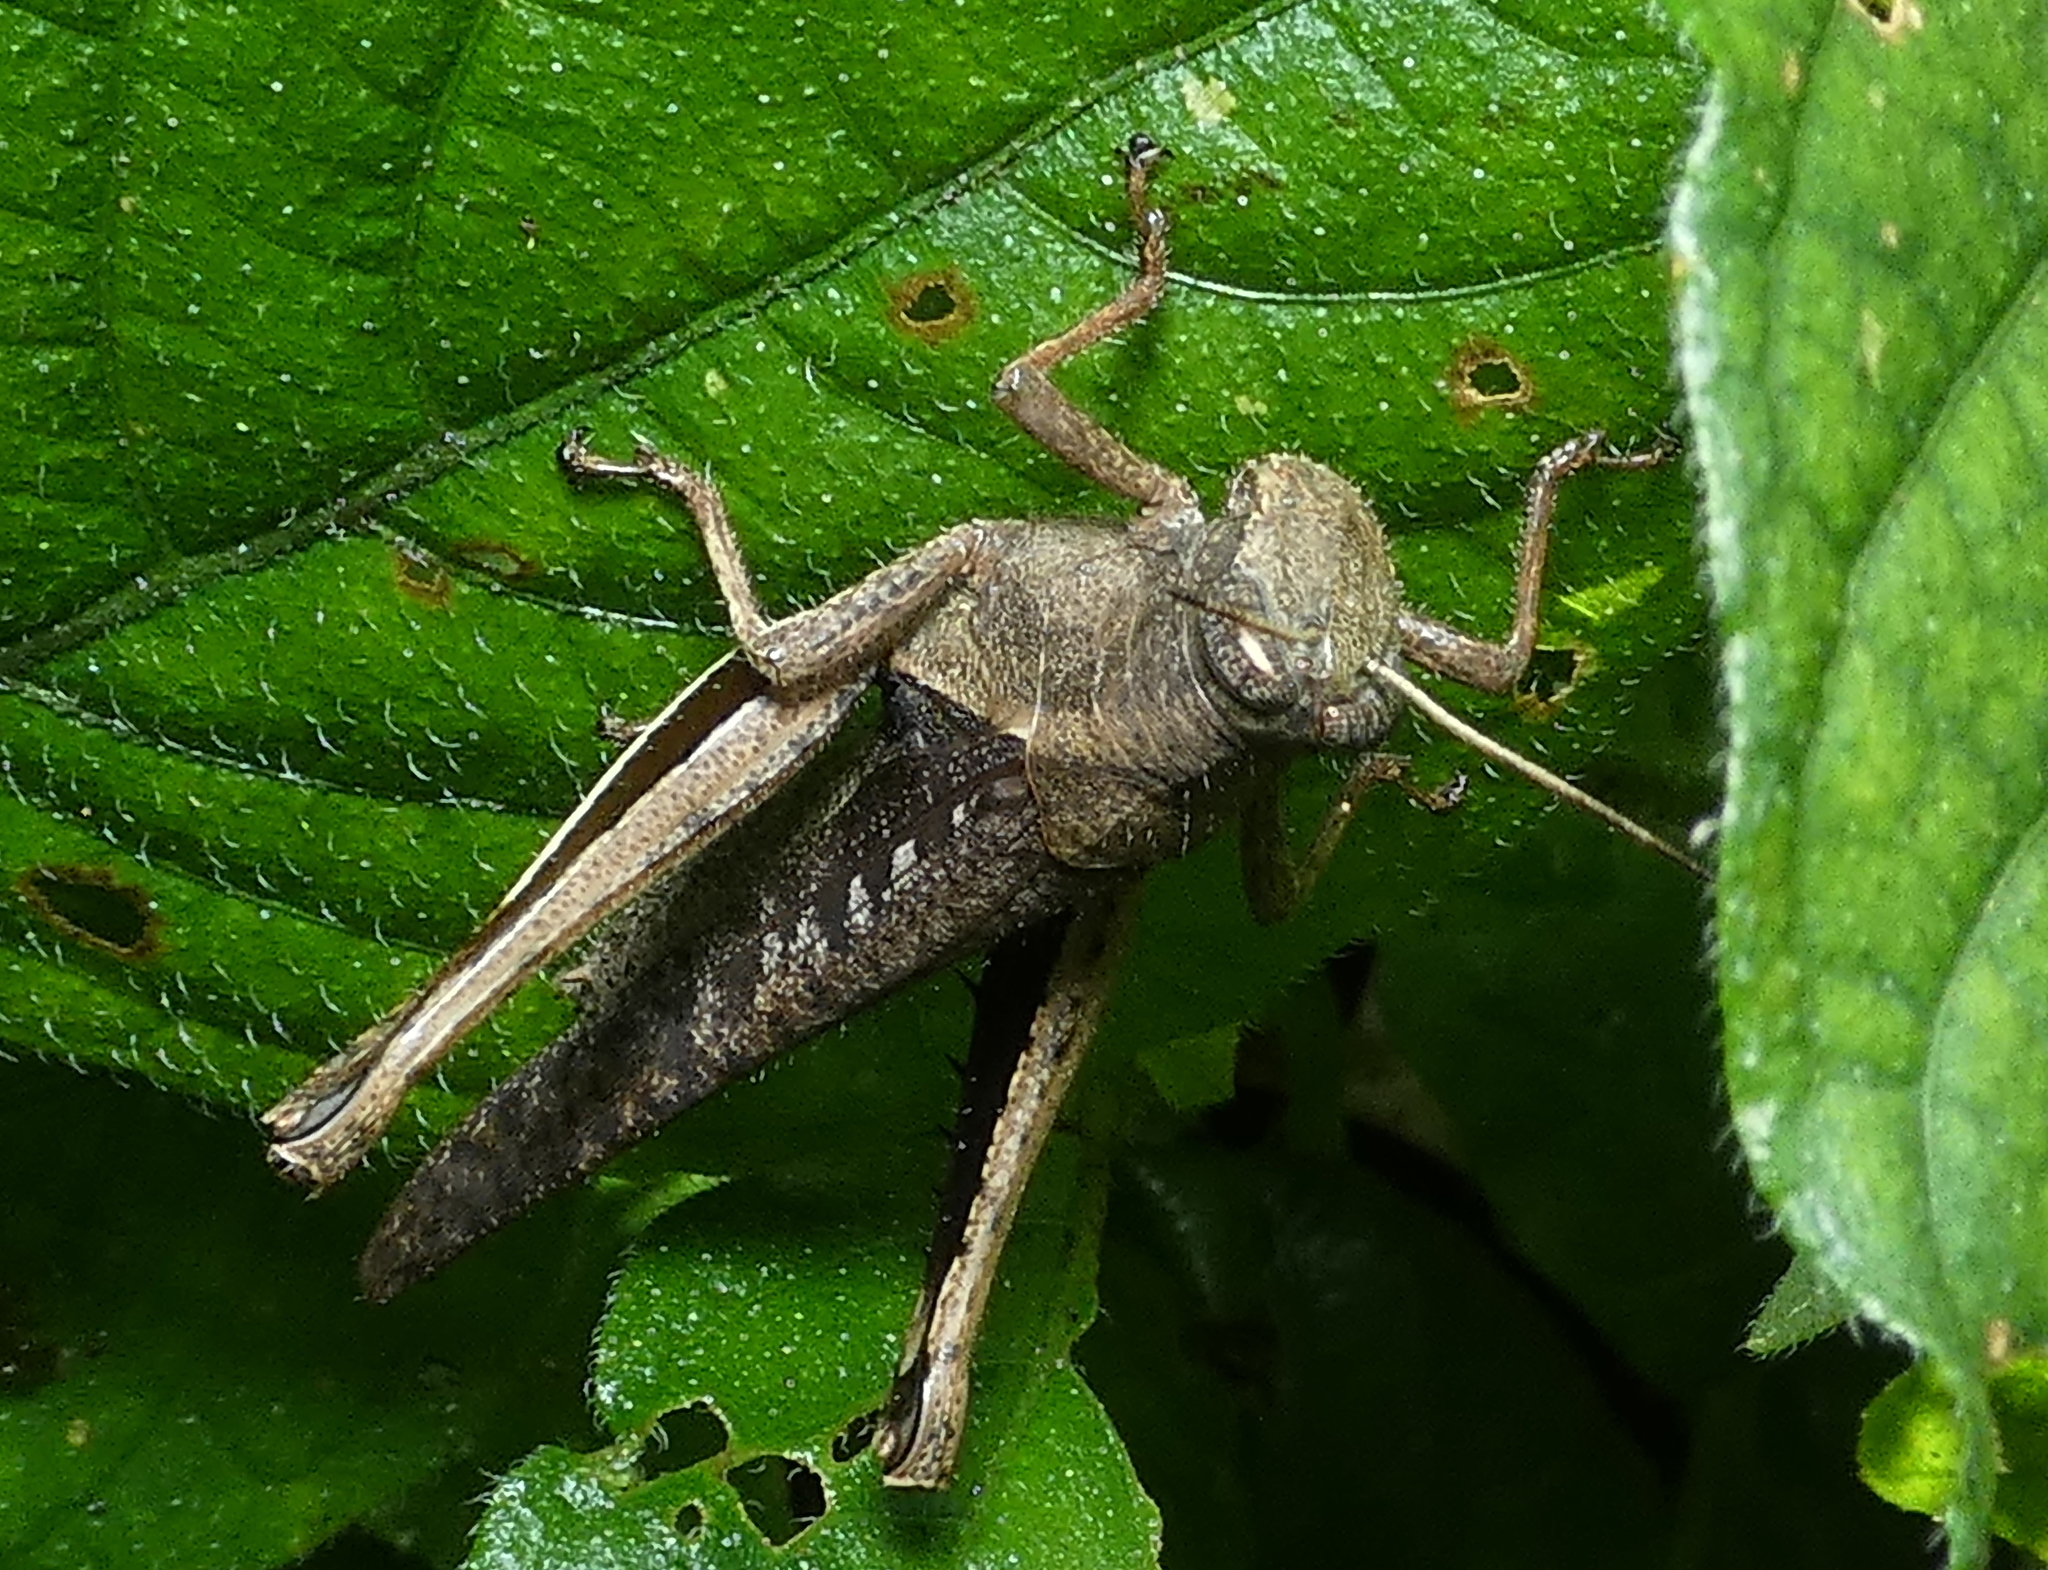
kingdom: Animalia
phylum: Arthropoda
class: Insecta
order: Orthoptera
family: Acrididae
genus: Abracris
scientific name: Abracris flavolineata
